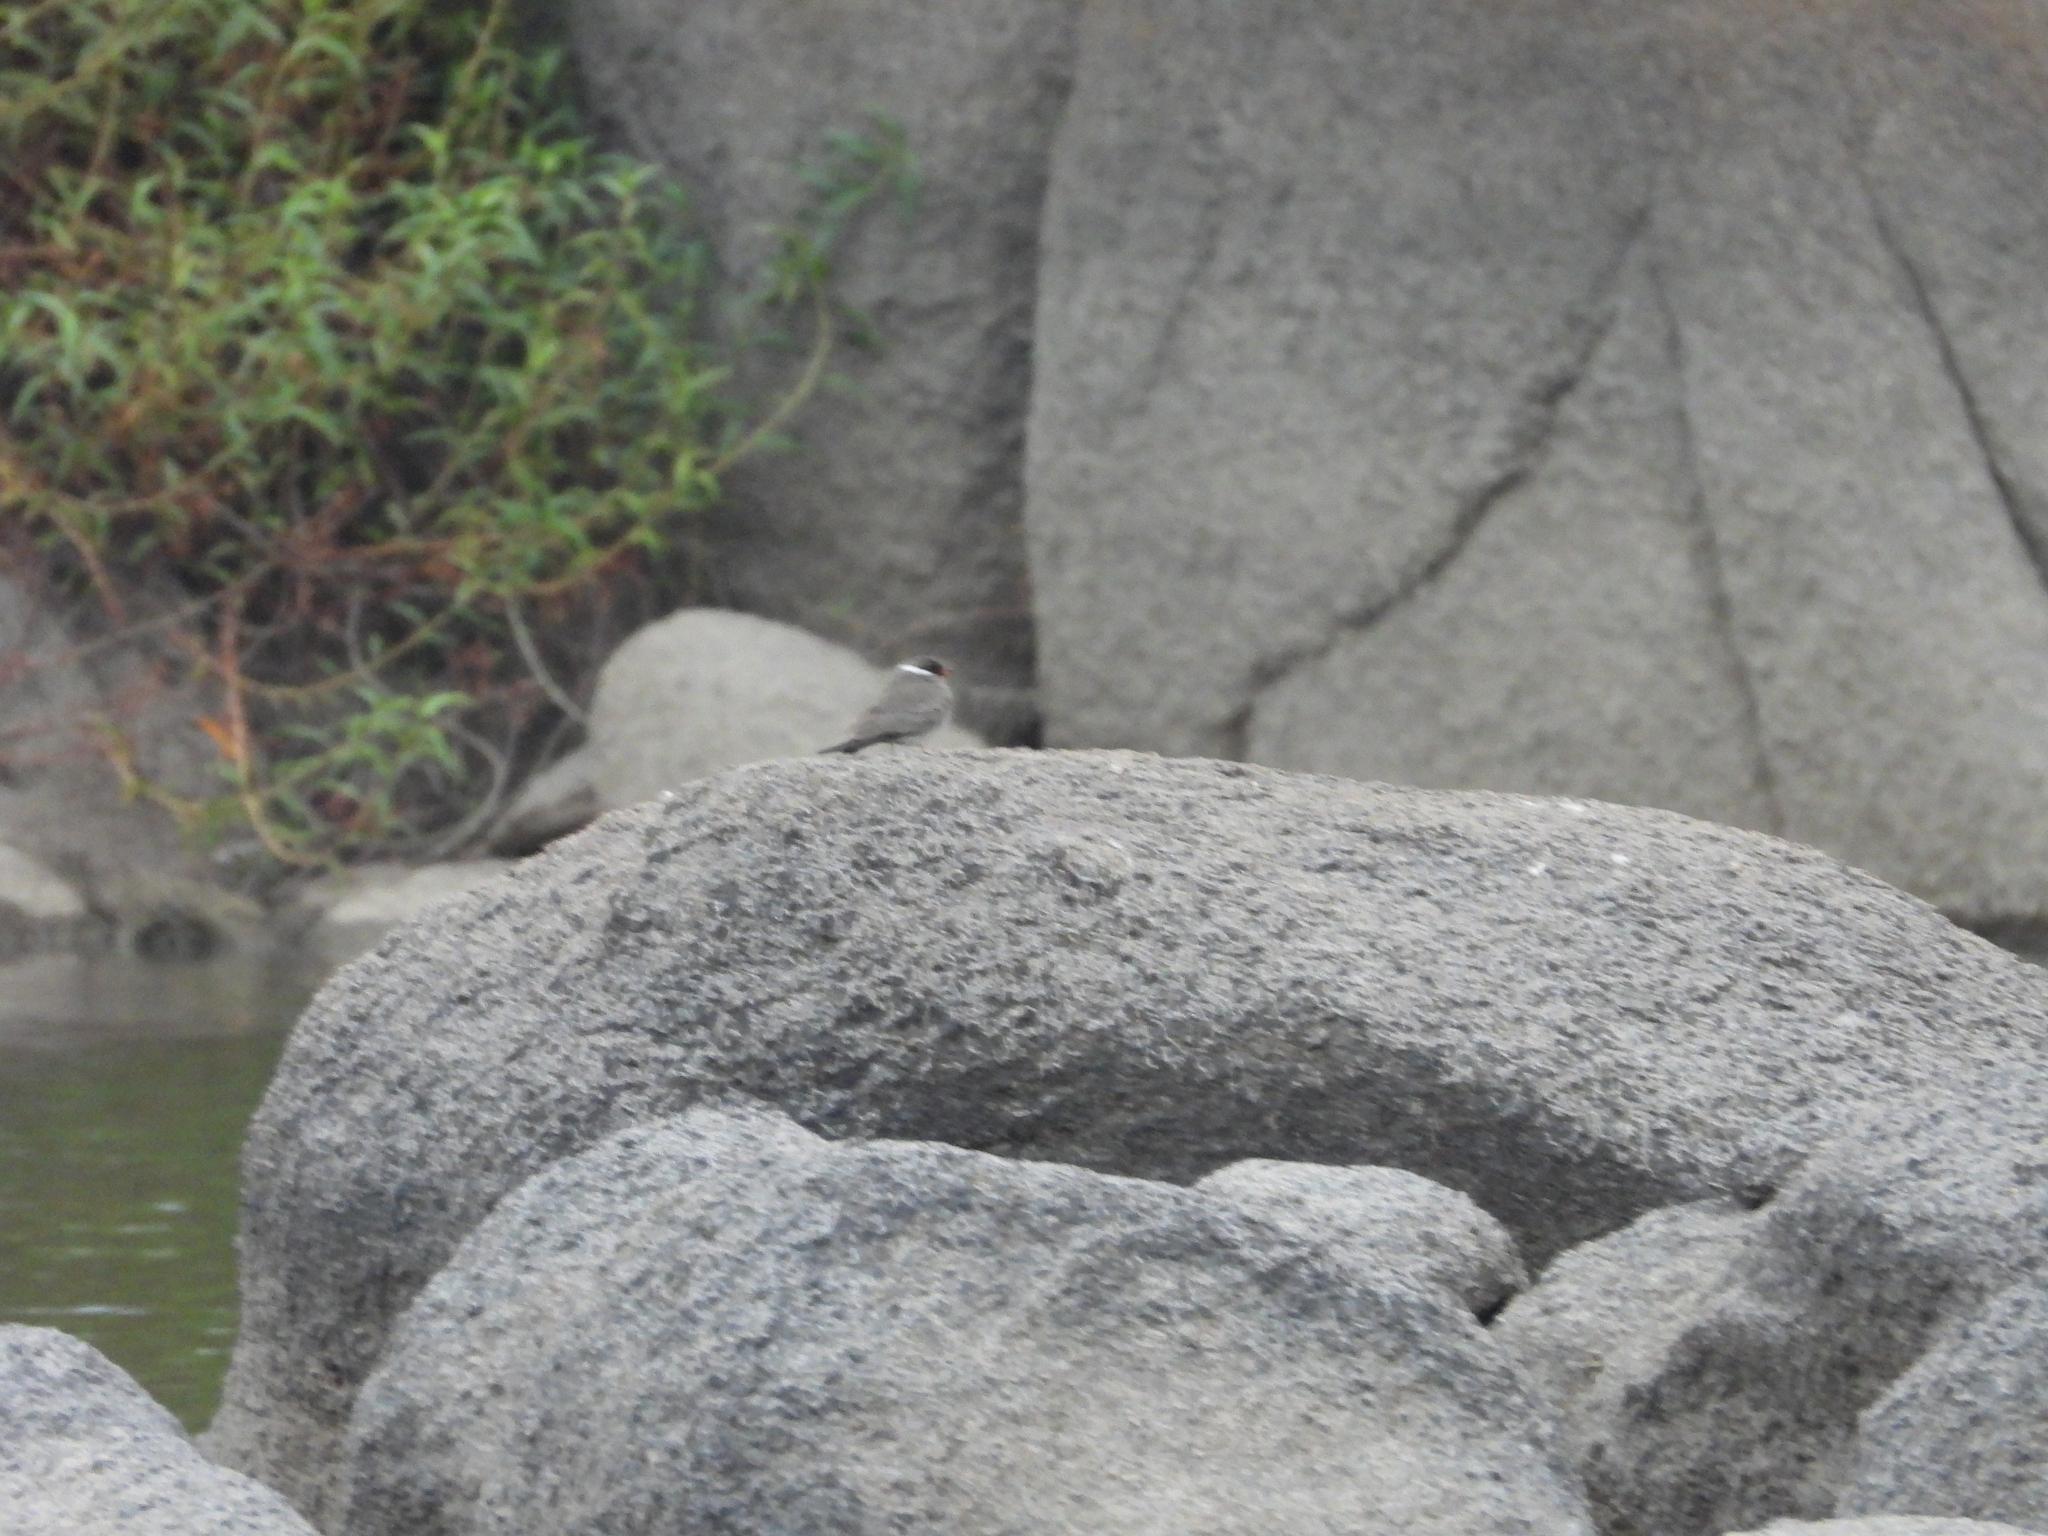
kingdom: Animalia
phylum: Chordata
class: Aves
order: Charadriiformes
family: Glareolidae
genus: Glareola
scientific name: Glareola nuchalis
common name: Rock pratincole
